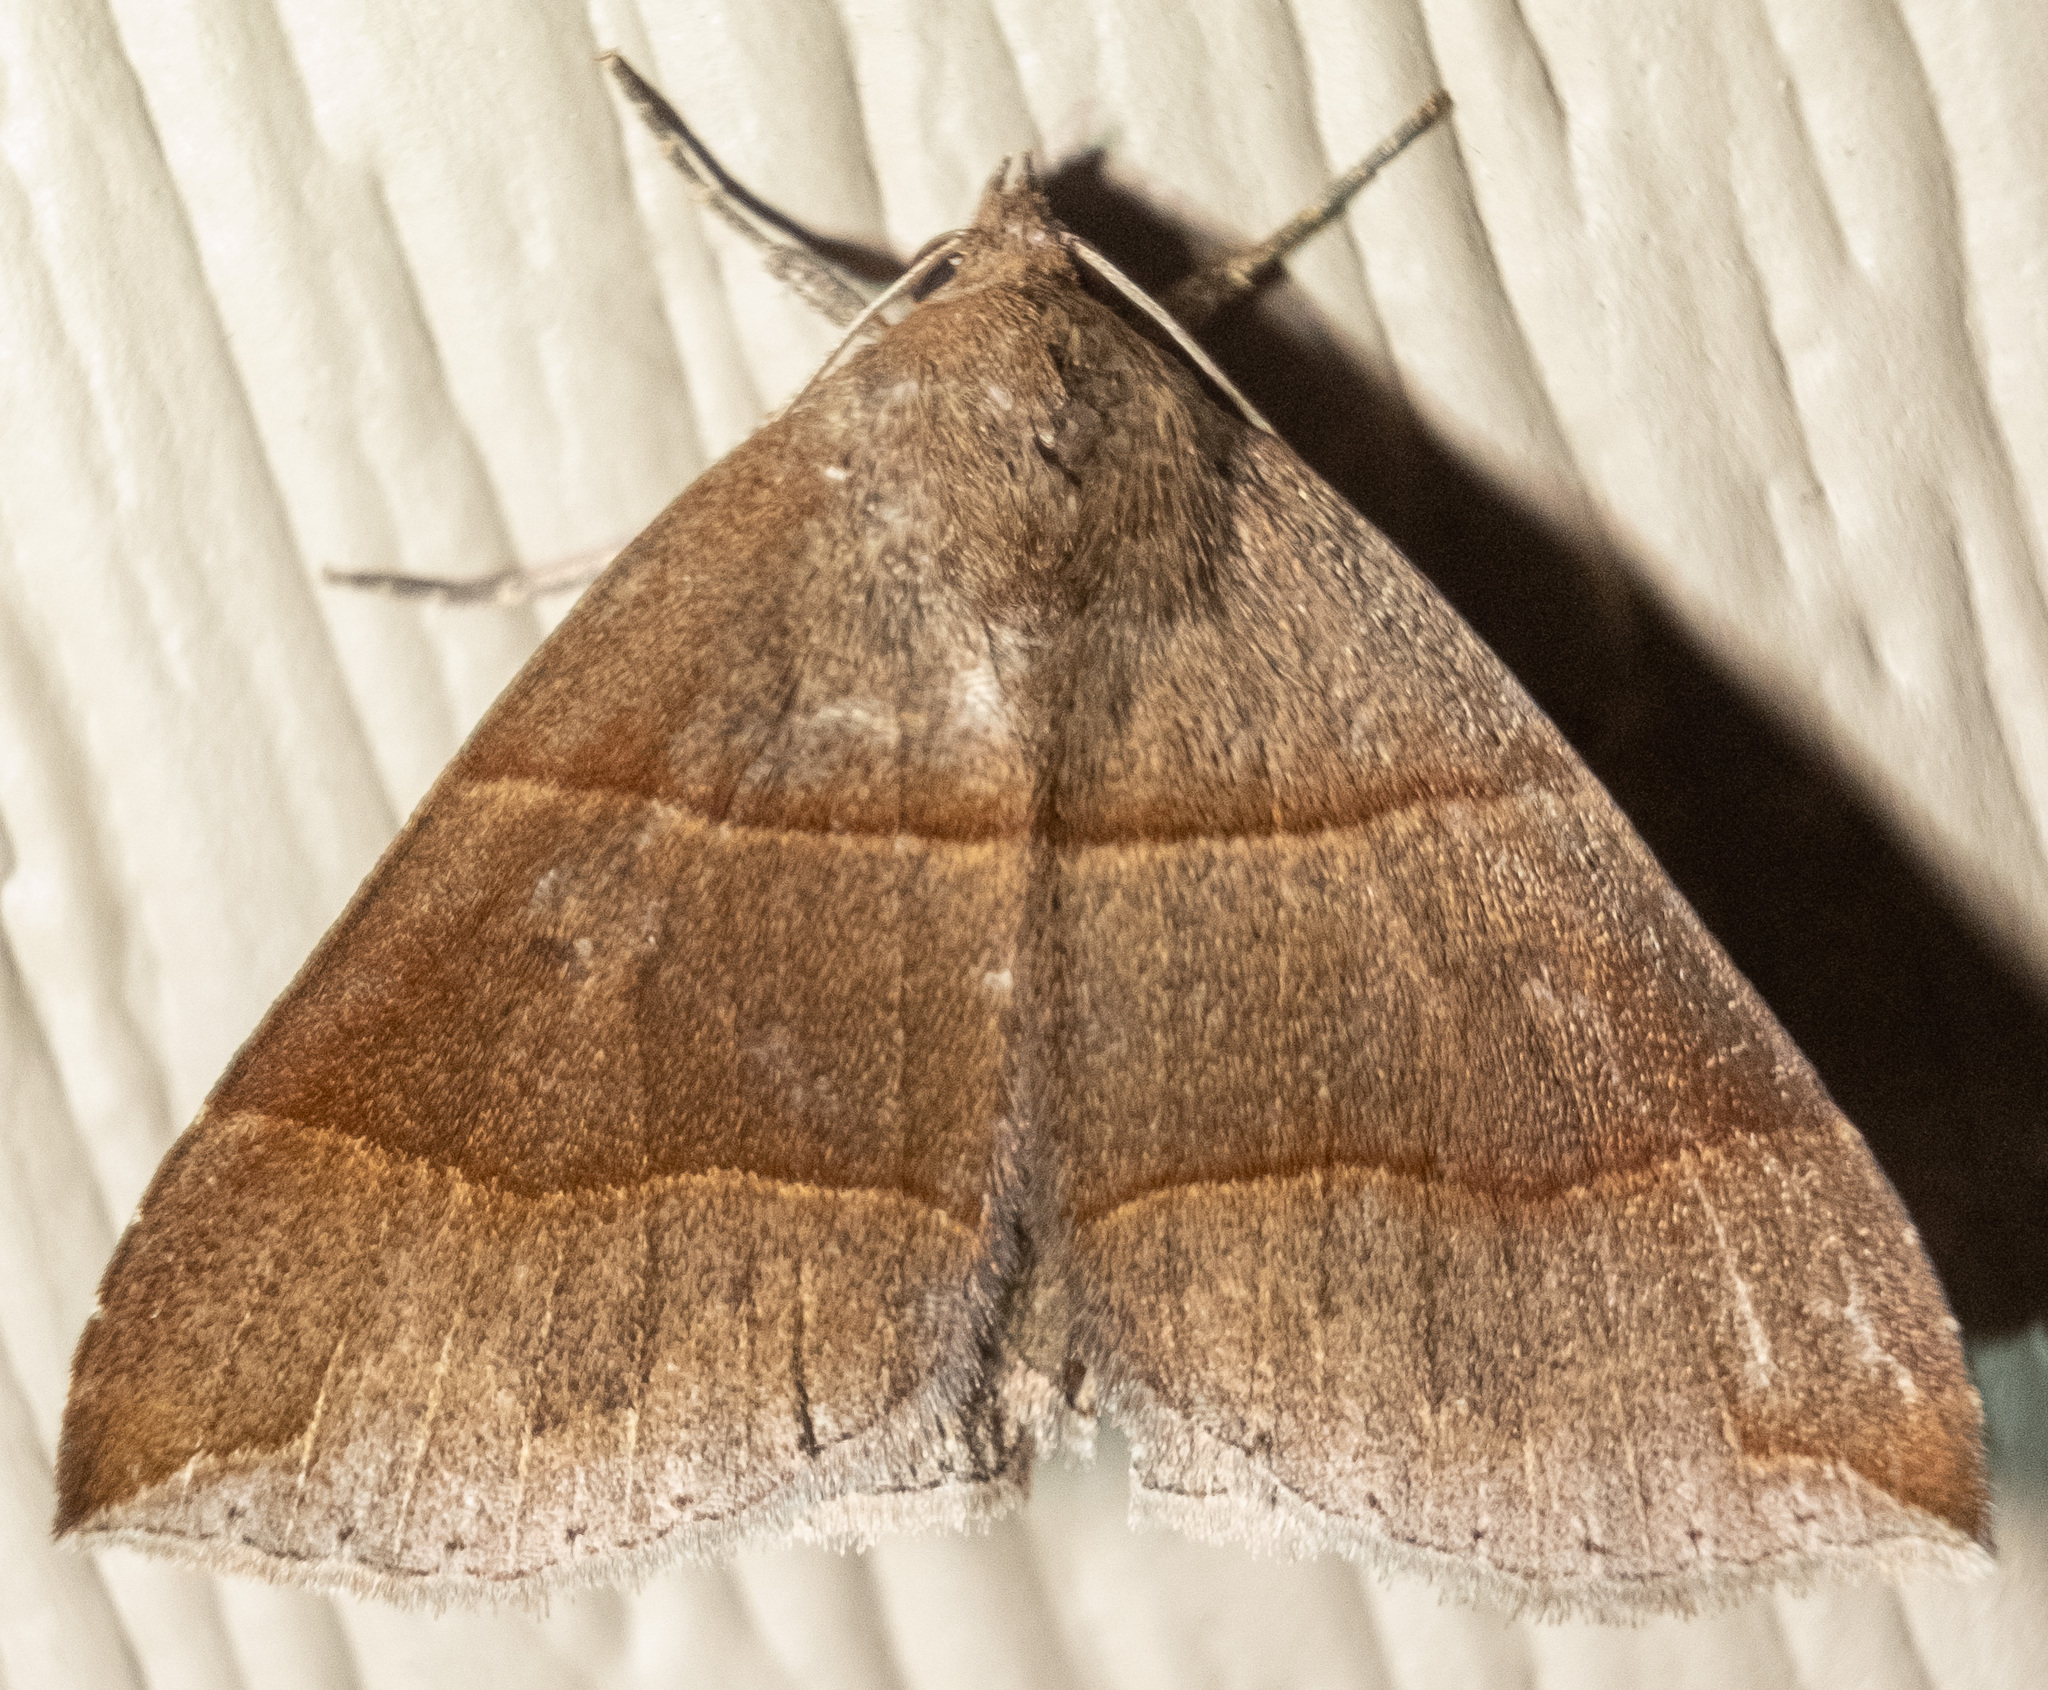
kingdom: Animalia
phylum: Arthropoda
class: Insecta
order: Lepidoptera
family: Erebidae
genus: Parallelia
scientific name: Parallelia bistriaris
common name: Maple looper moth
